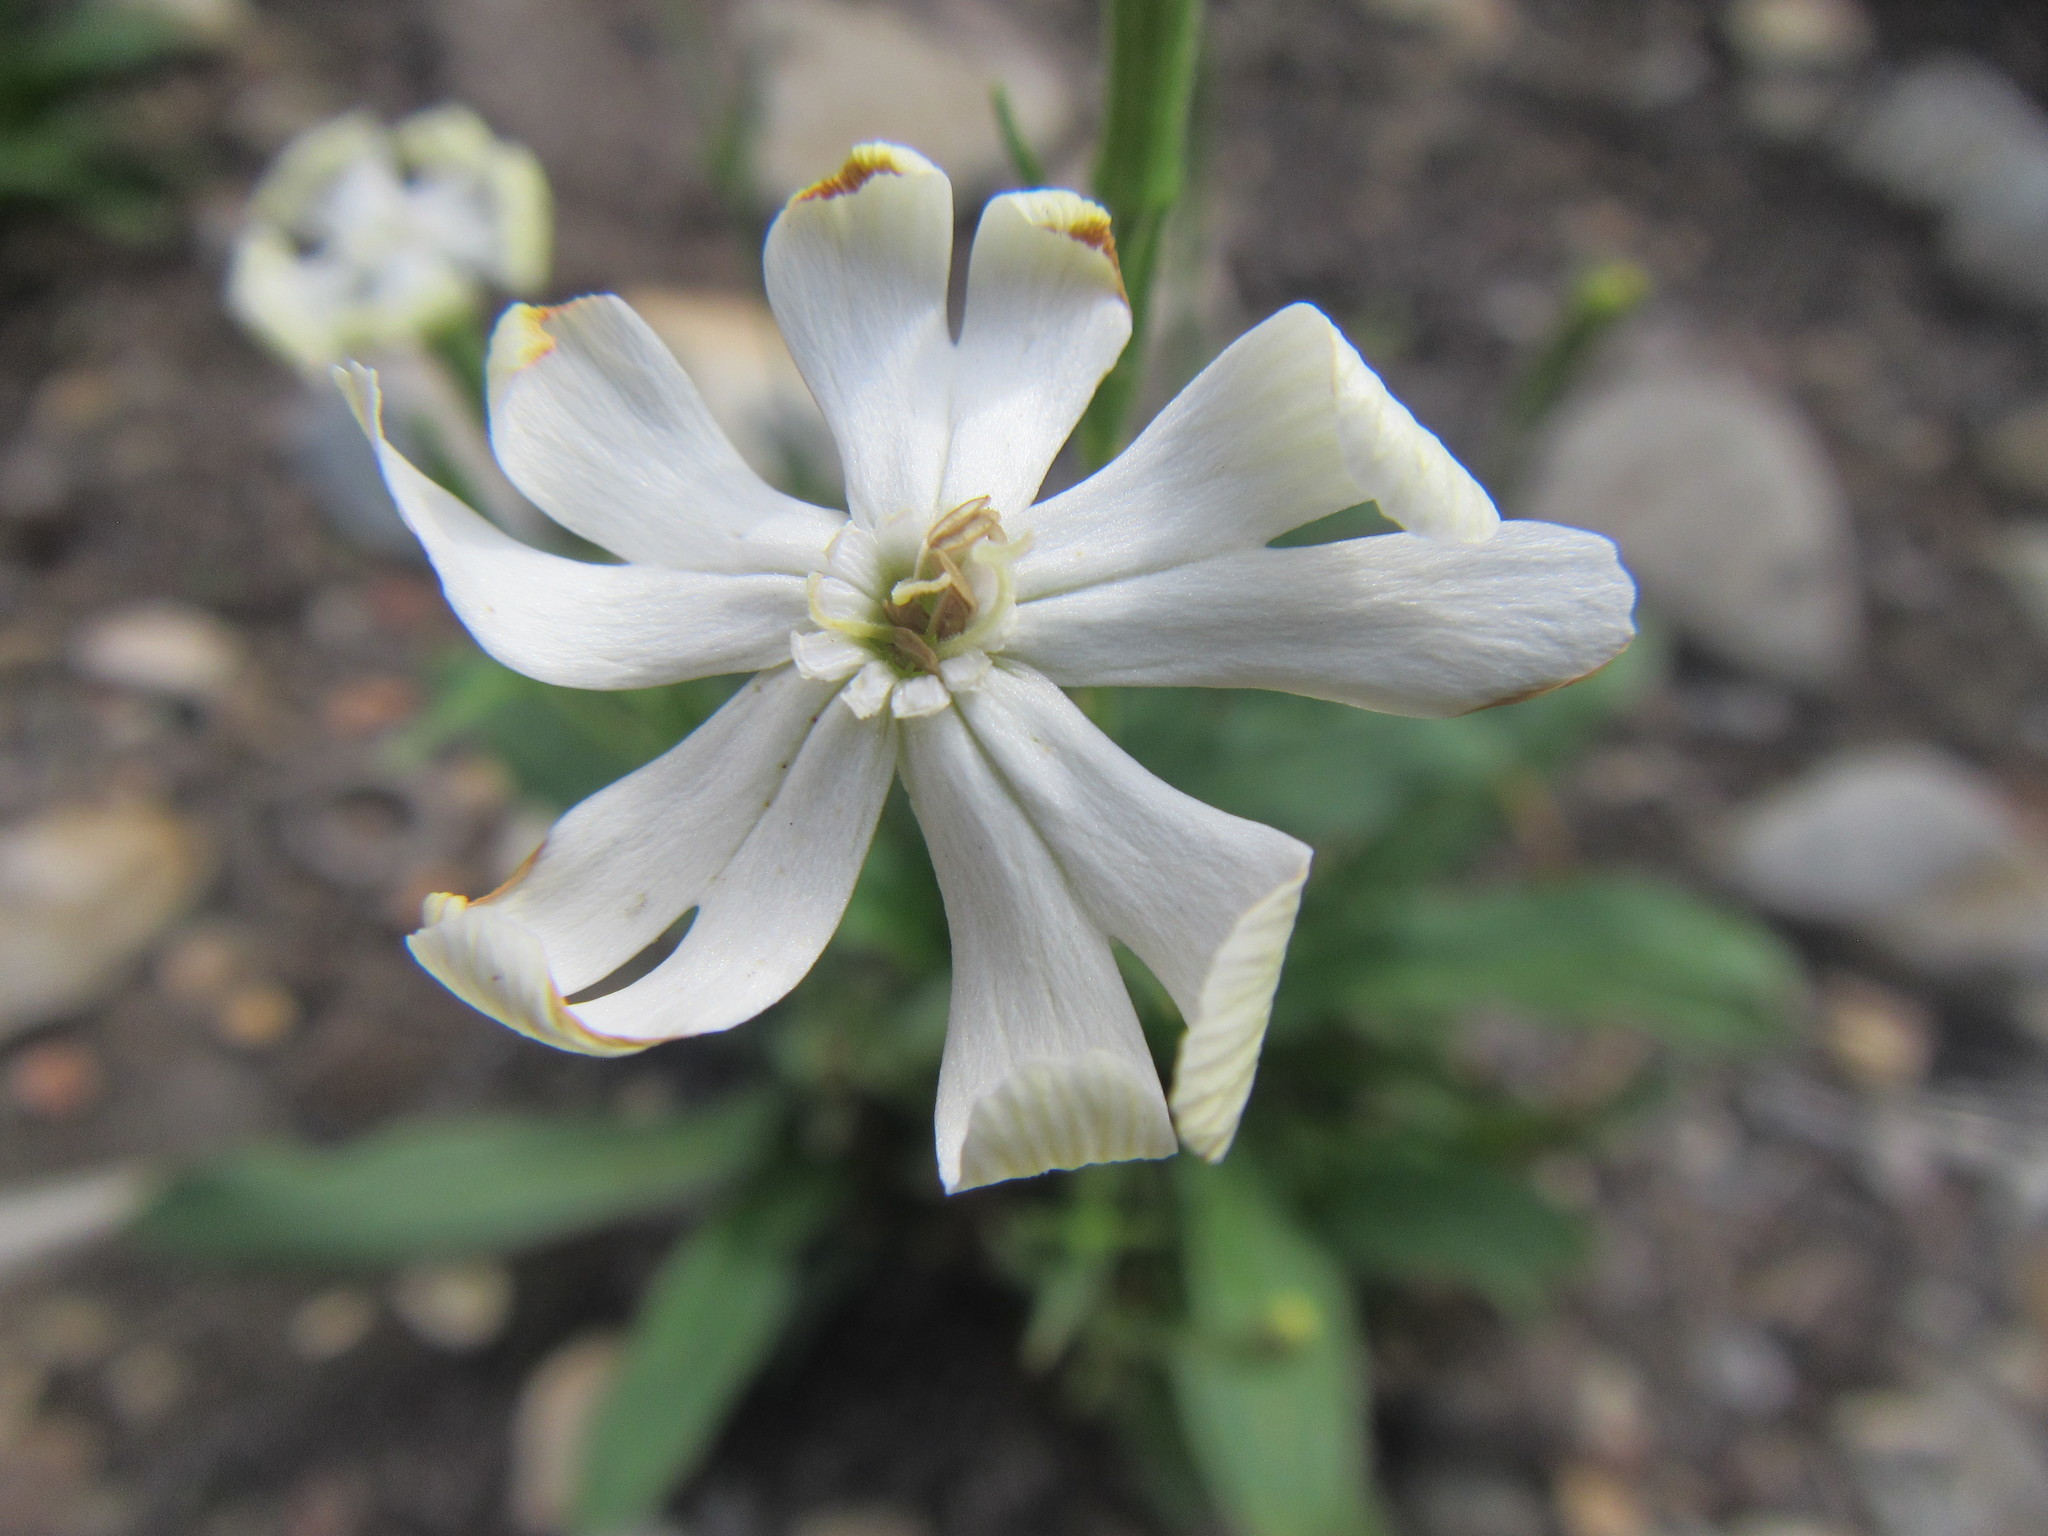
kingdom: Plantae
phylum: Tracheophyta
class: Magnoliopsida
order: Caryophyllales
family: Caryophyllaceae
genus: Silene
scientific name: Silene undulata
